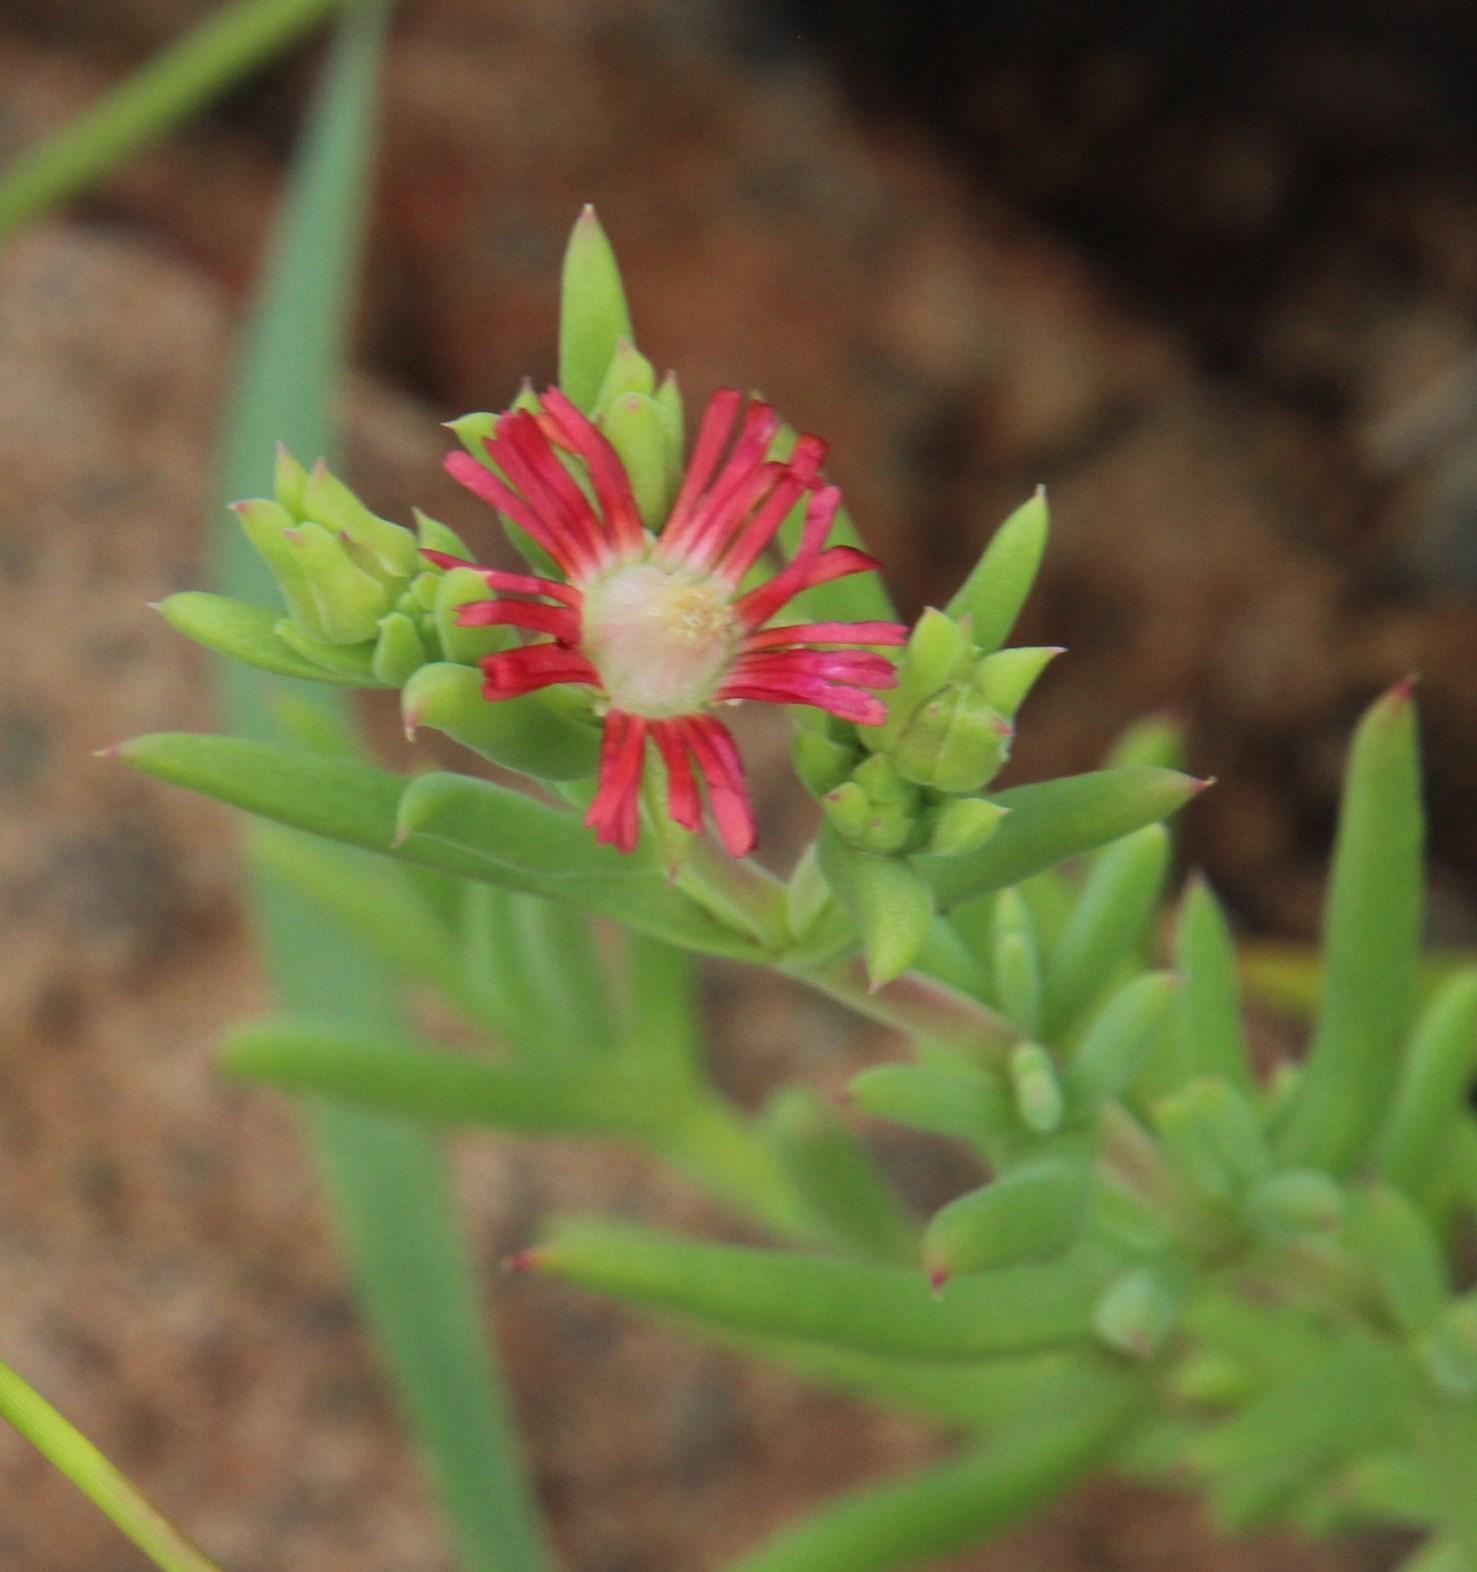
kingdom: Plantae
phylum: Tracheophyta
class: Magnoliopsida
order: Caryophyllales
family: Aizoaceae
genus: Delosperma
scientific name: Delosperma multiflorum
